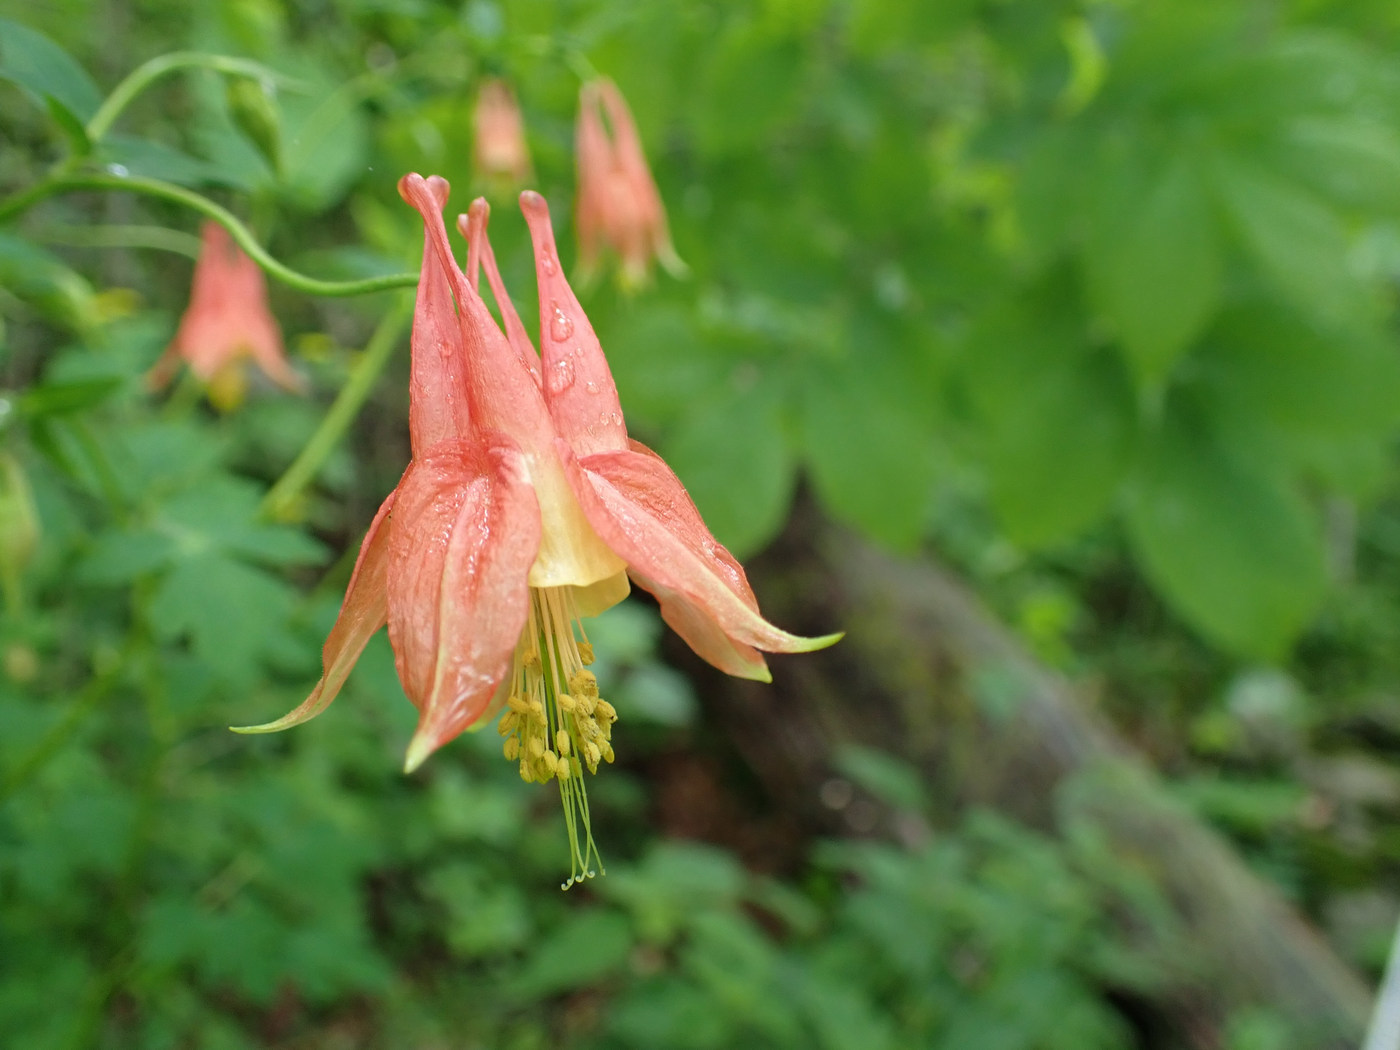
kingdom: Plantae
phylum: Tracheophyta
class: Magnoliopsida
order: Ranunculales
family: Ranunculaceae
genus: Aquilegia
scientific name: Aquilegia canadensis
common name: American columbine
